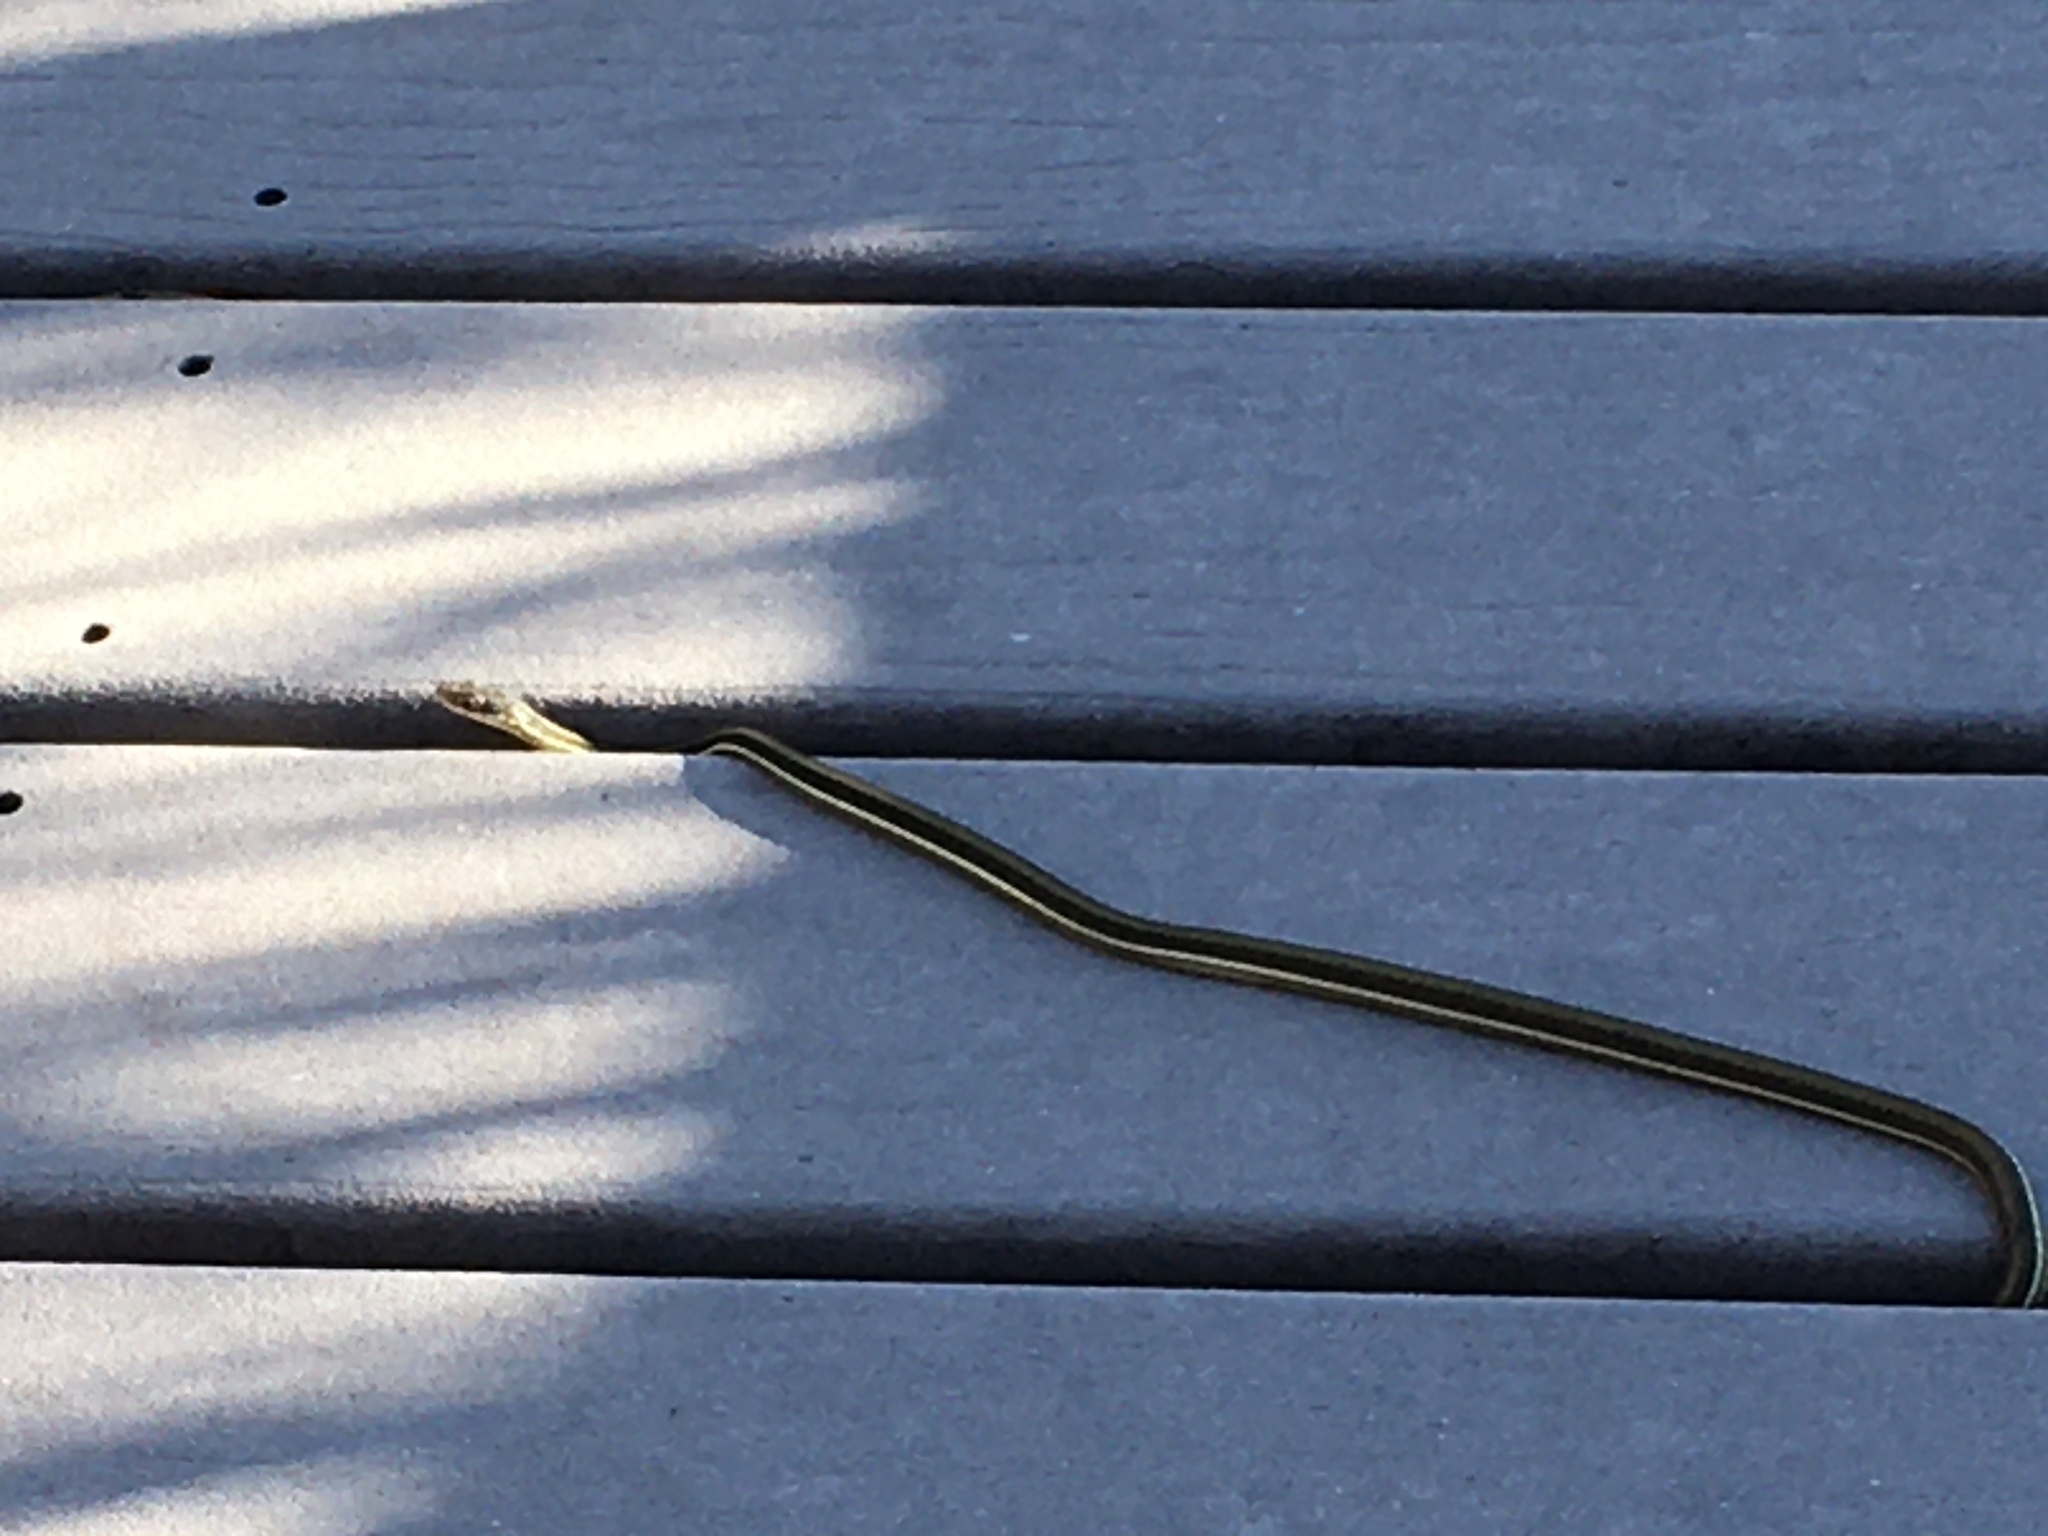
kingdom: Animalia
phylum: Chordata
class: Squamata
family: Colubridae
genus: Thamnophis
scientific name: Thamnophis saurita
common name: Eastern ribbonsnake
